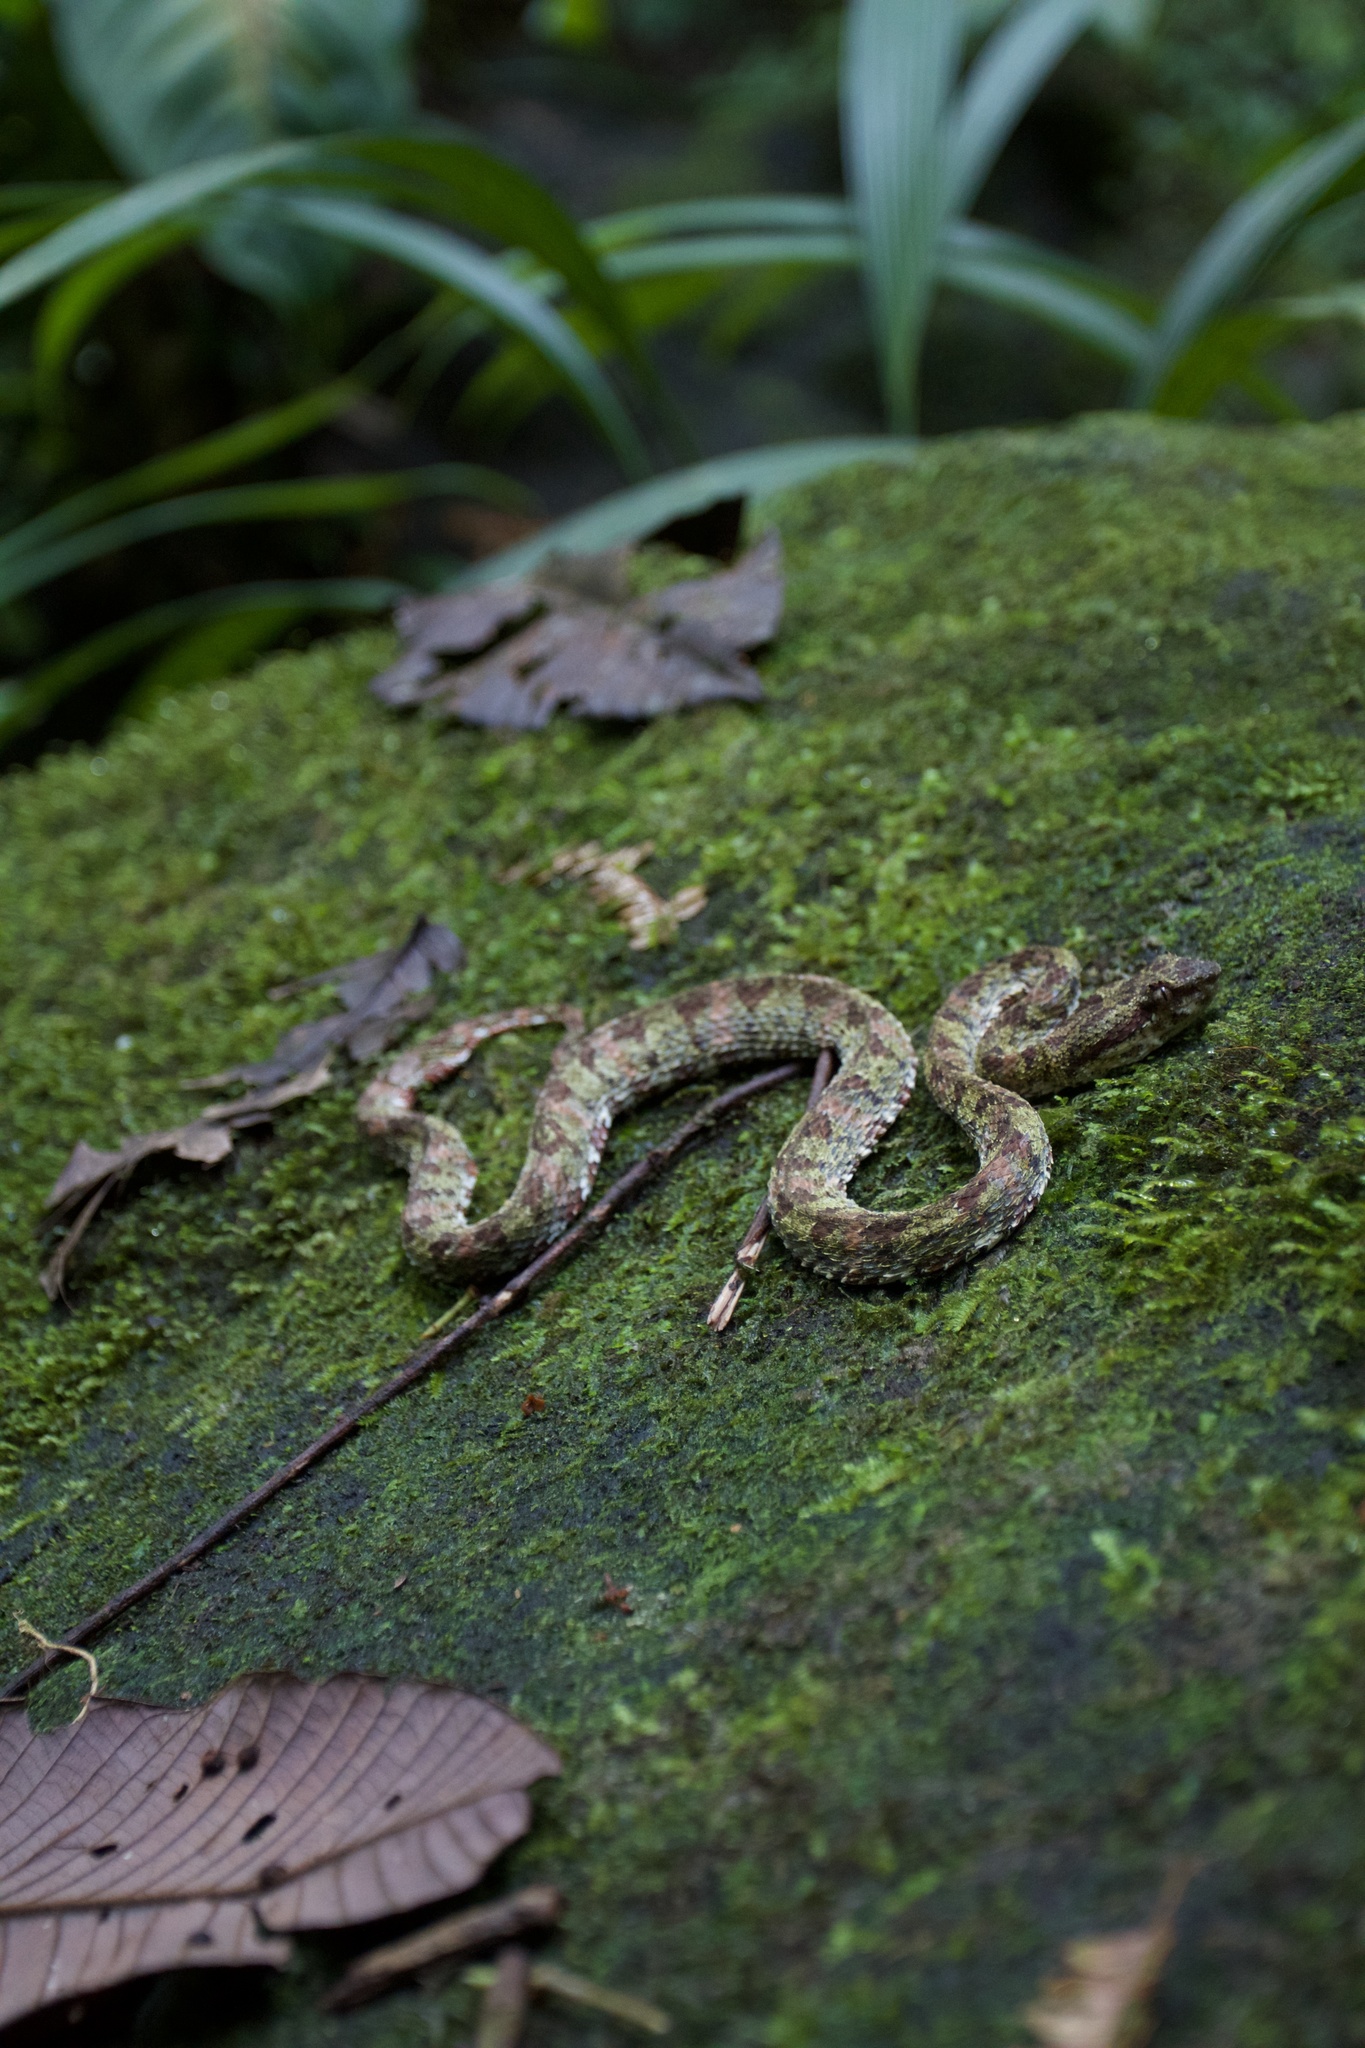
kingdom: Animalia
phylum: Chordata
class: Squamata
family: Viperidae
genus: Bothriechis
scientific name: Bothriechis schlegelii
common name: Eyelash viper
